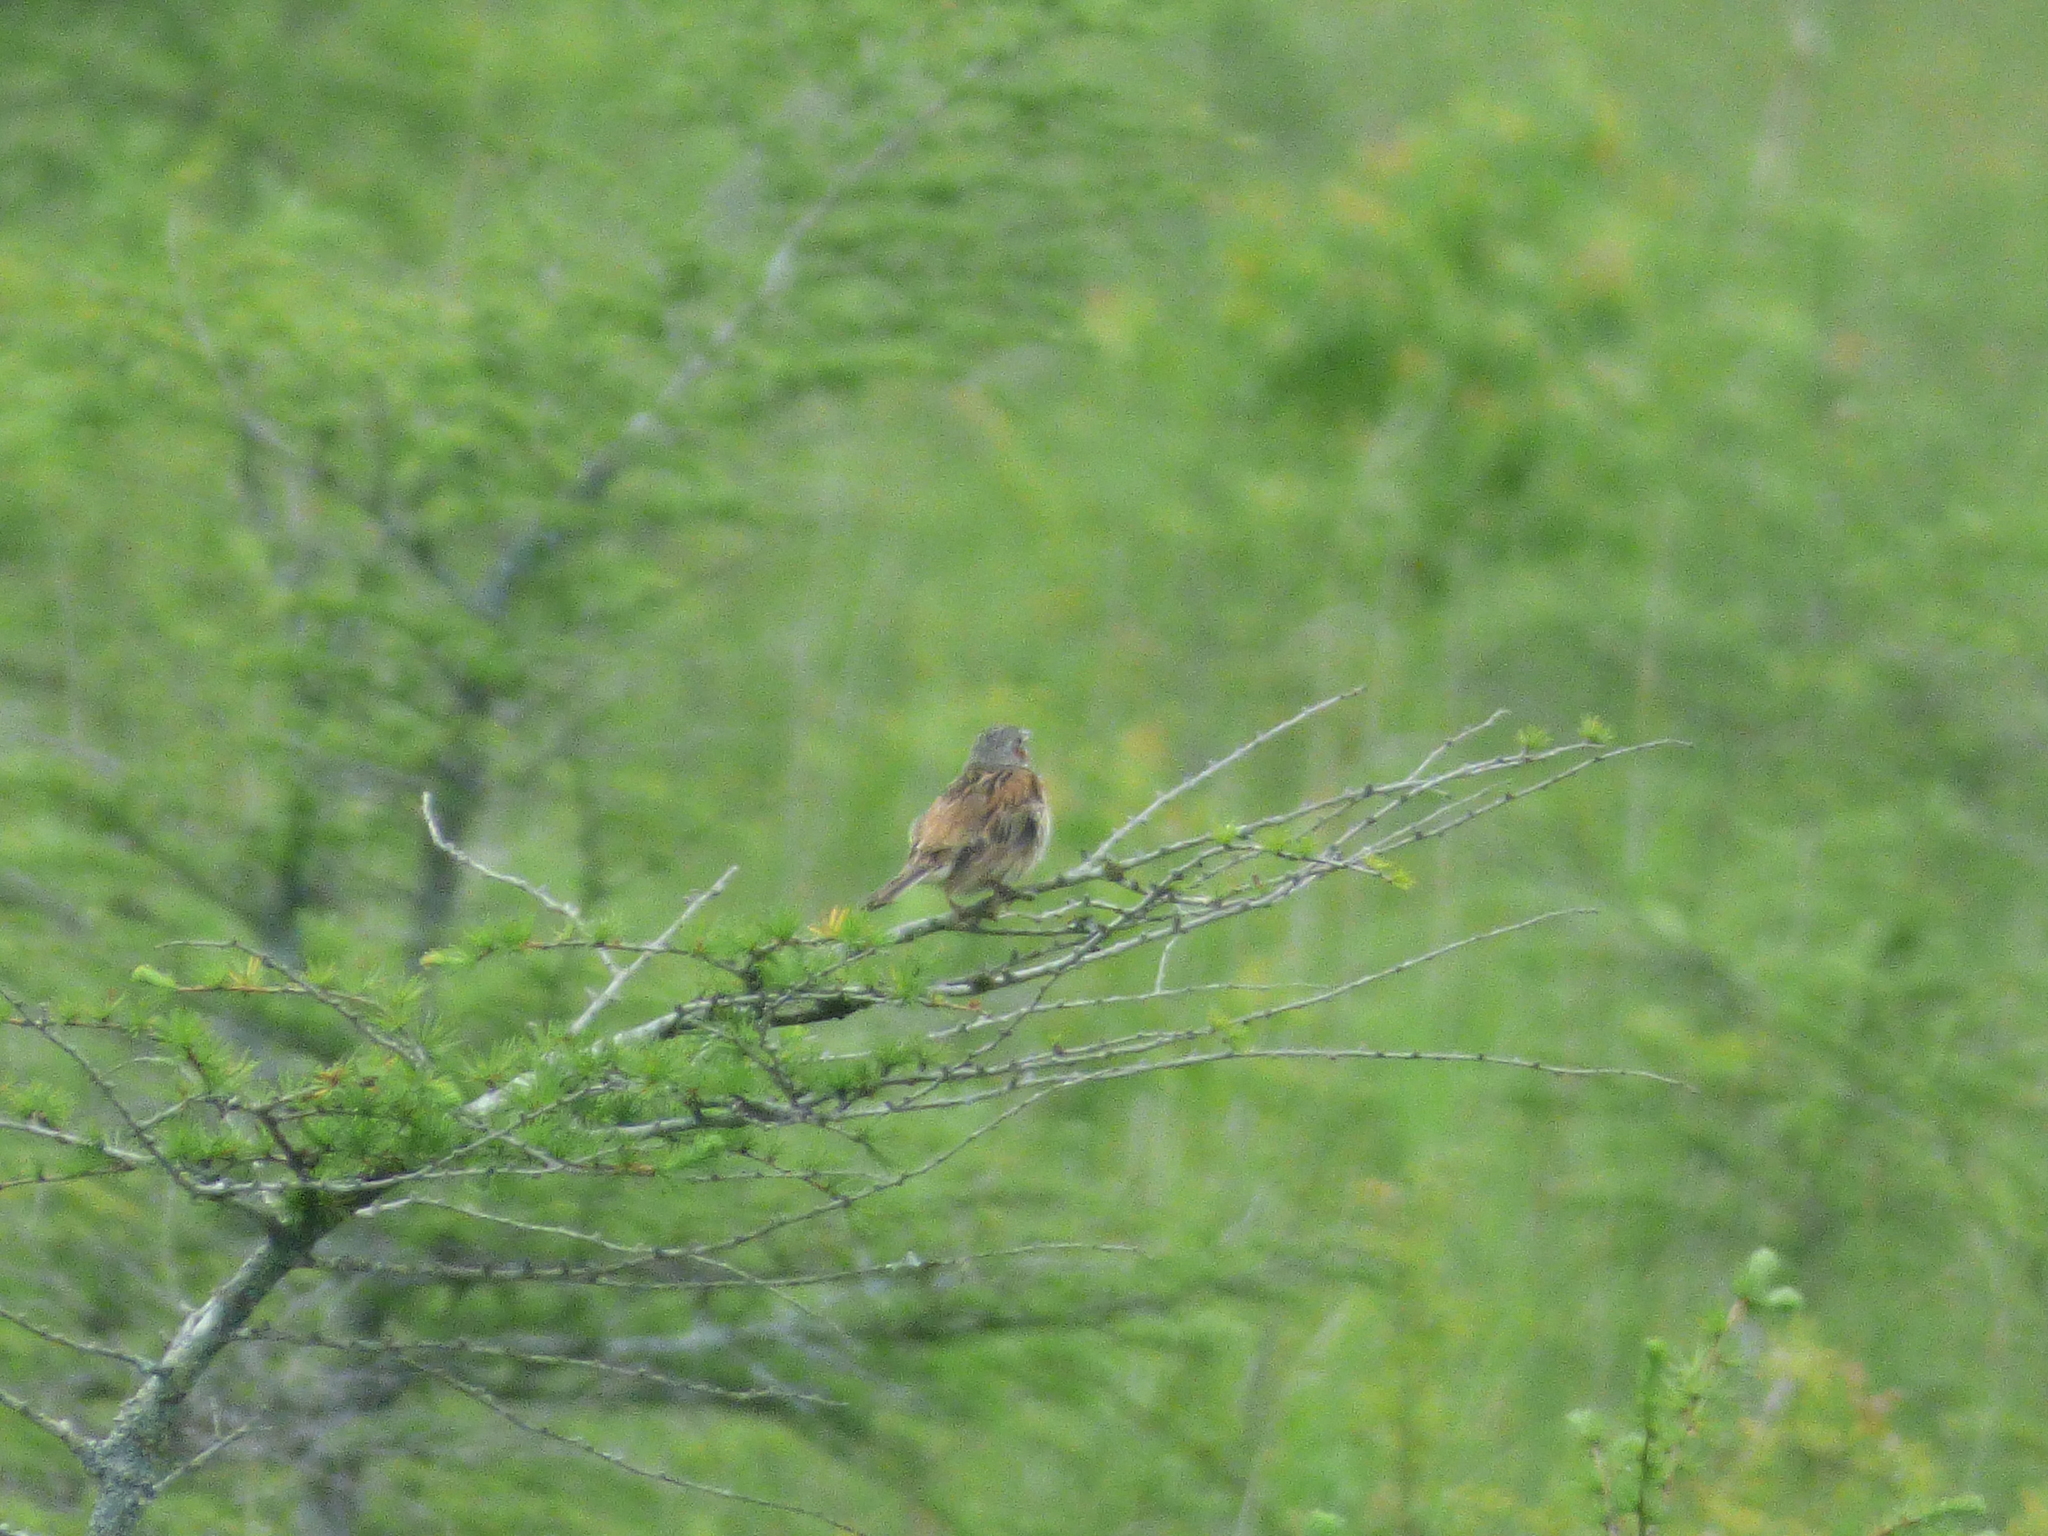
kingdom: Animalia
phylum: Chordata
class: Aves
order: Passeriformes
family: Emberizidae
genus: Emberiza
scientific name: Emberiza fucata
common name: Chestnut-eared bunting
